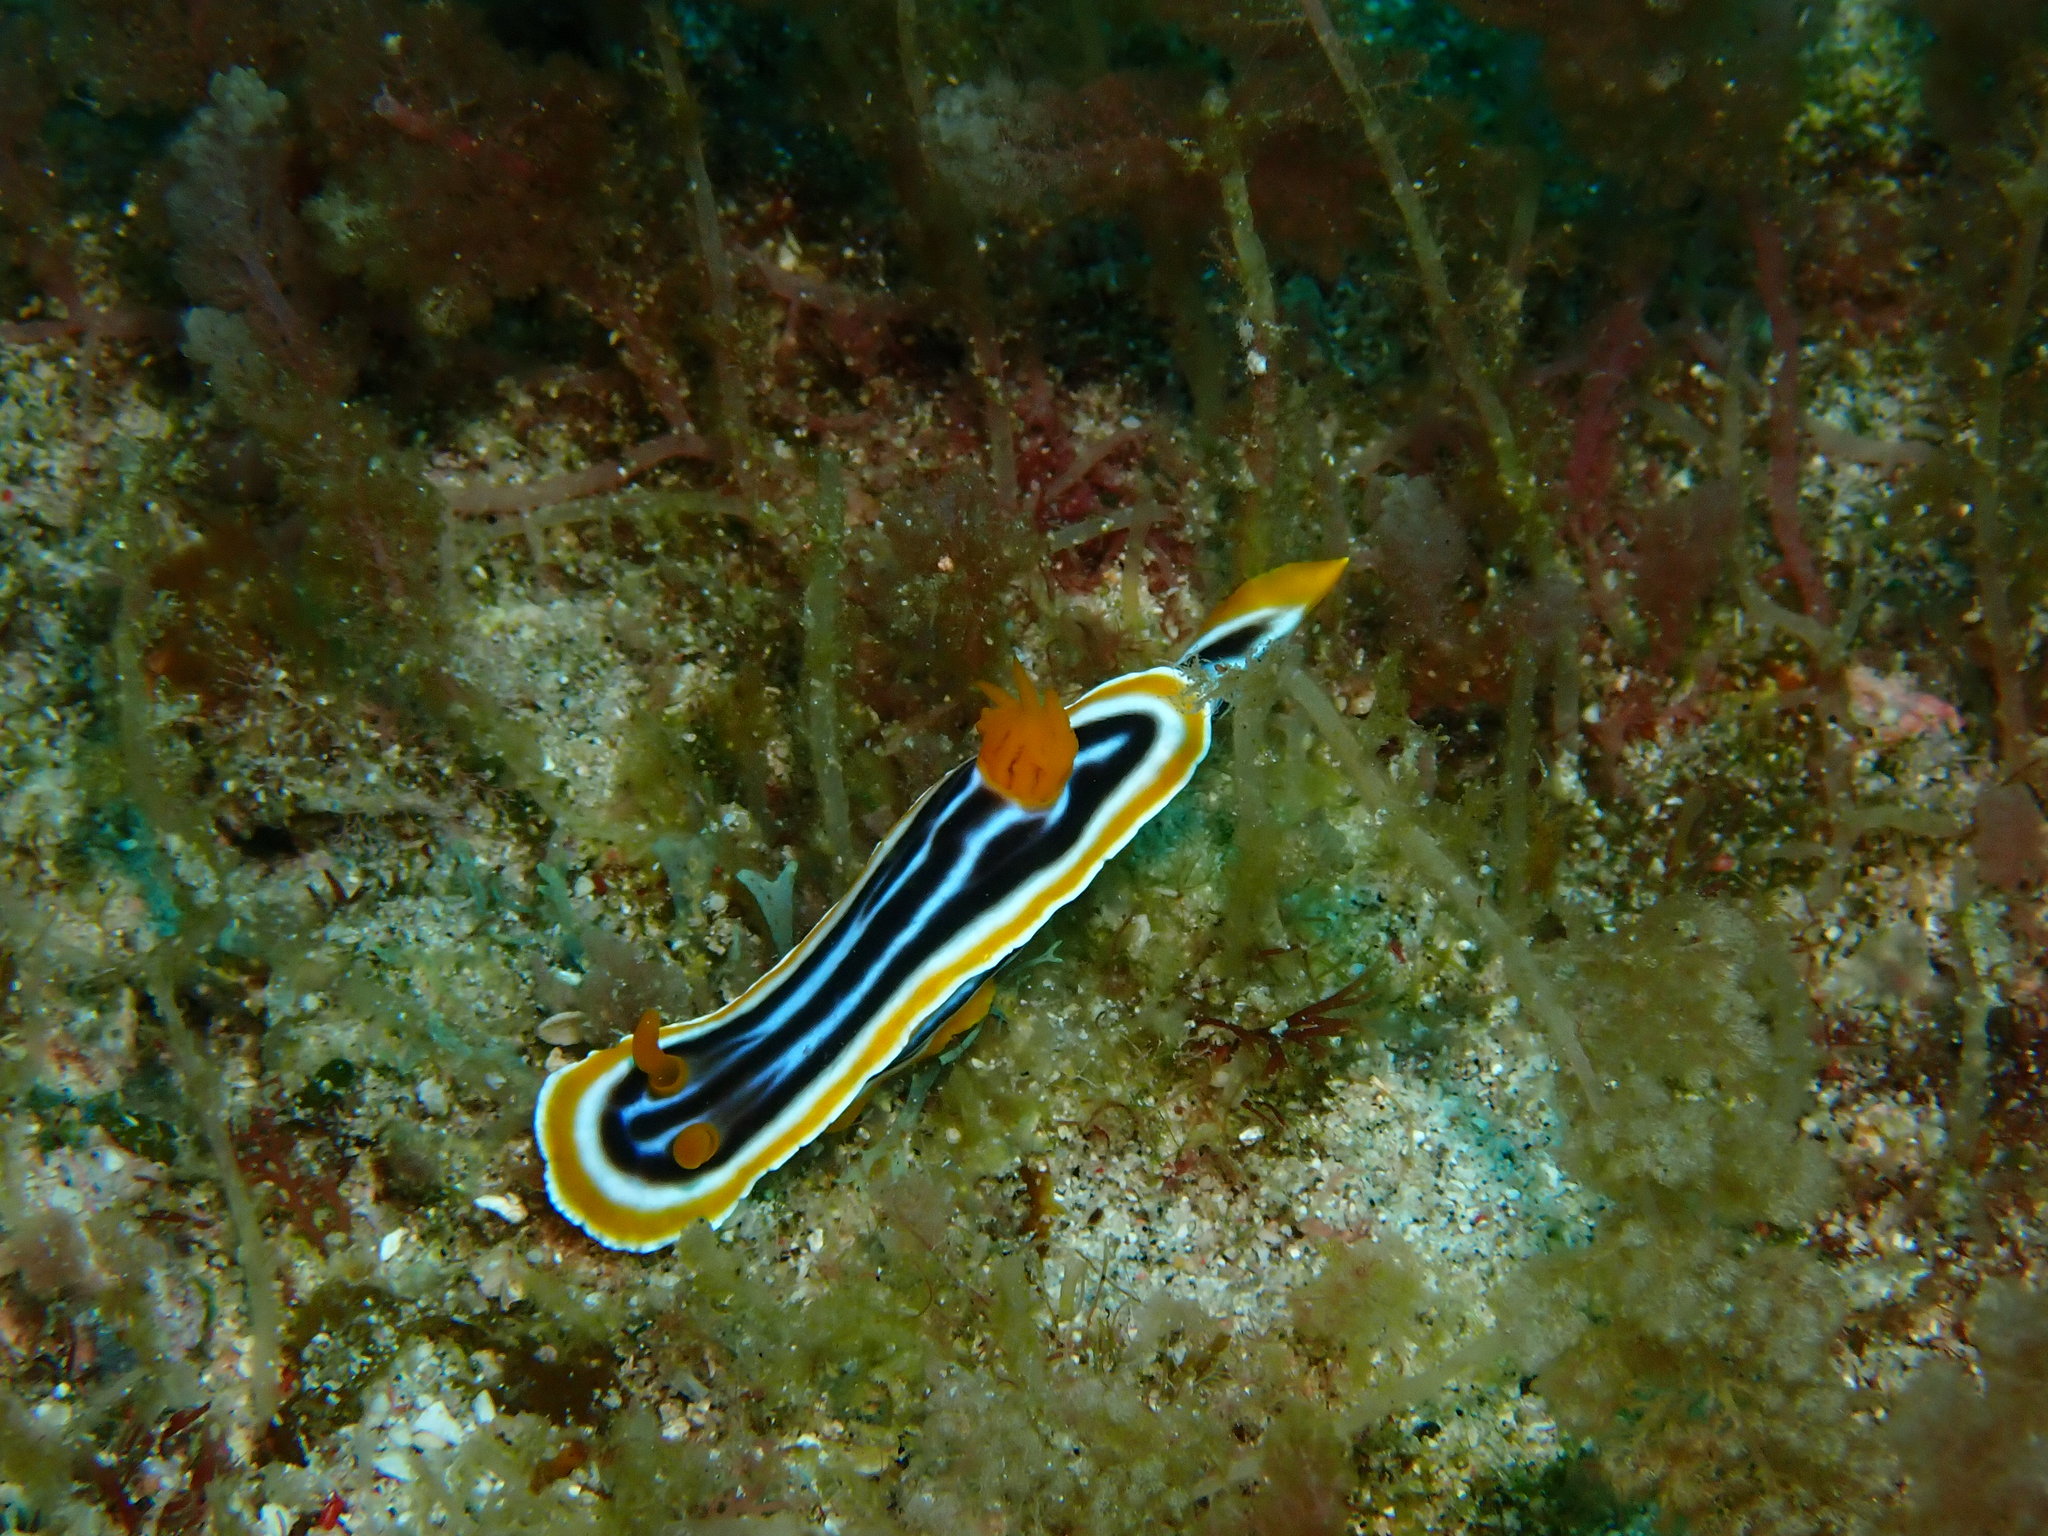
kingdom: Animalia
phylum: Mollusca
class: Gastropoda
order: Nudibranchia
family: Chromodorididae
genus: Chromodoris
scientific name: Chromodoris magnifica
